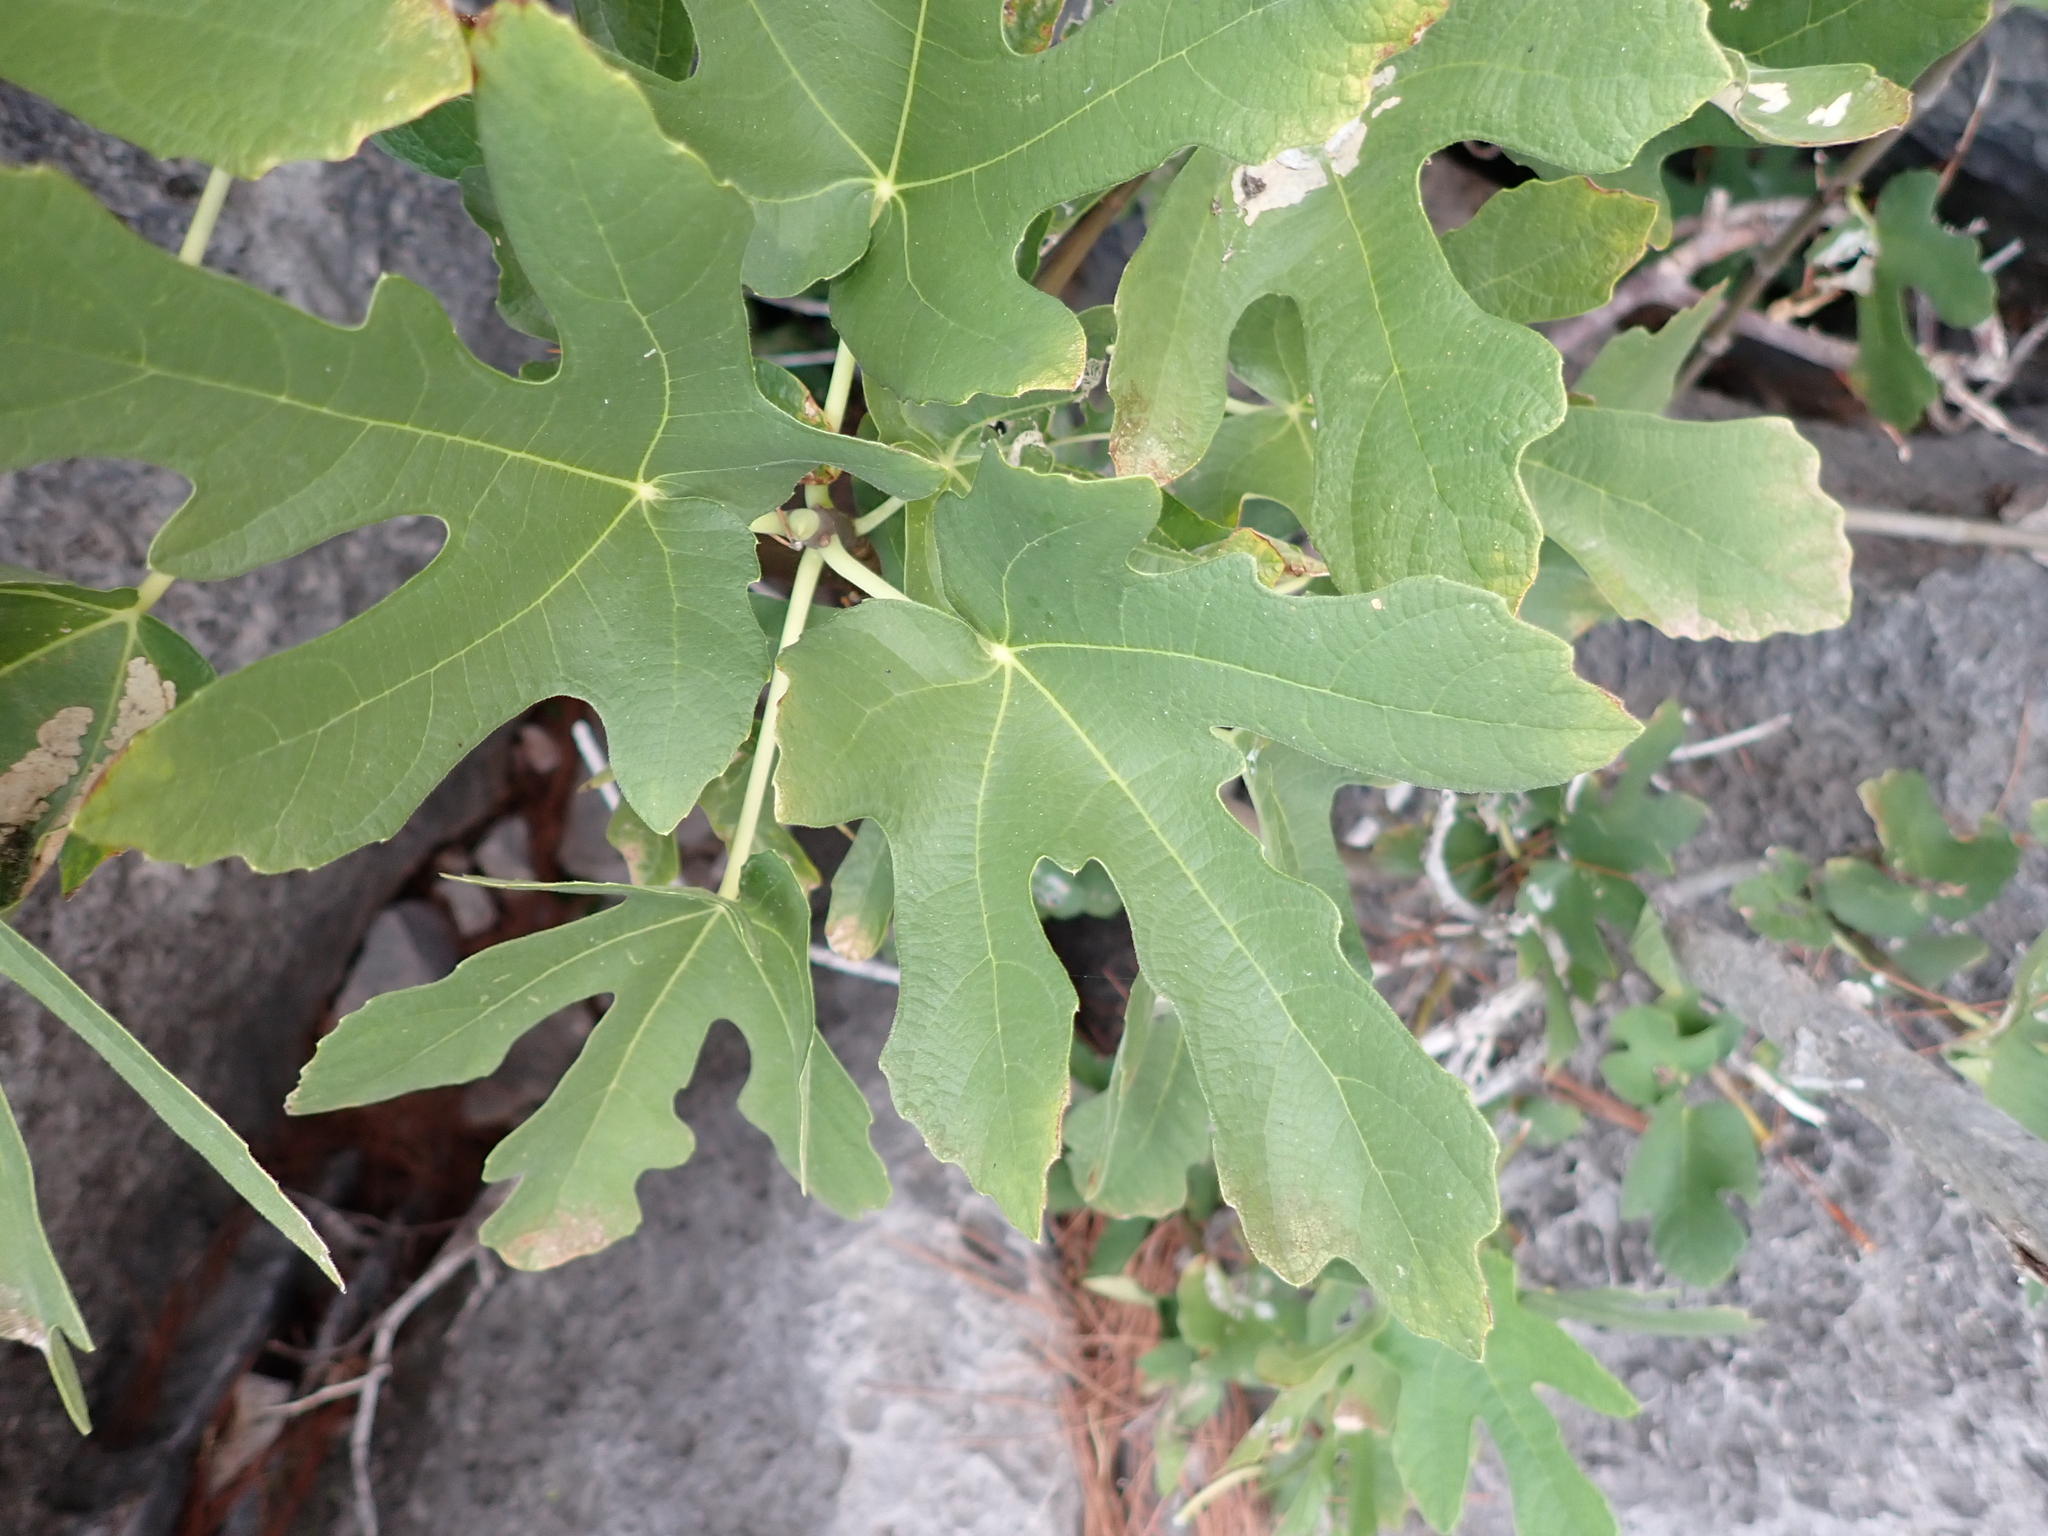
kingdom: Plantae
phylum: Tracheophyta
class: Magnoliopsida
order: Rosales
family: Moraceae
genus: Ficus
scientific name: Ficus carica
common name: Fig
